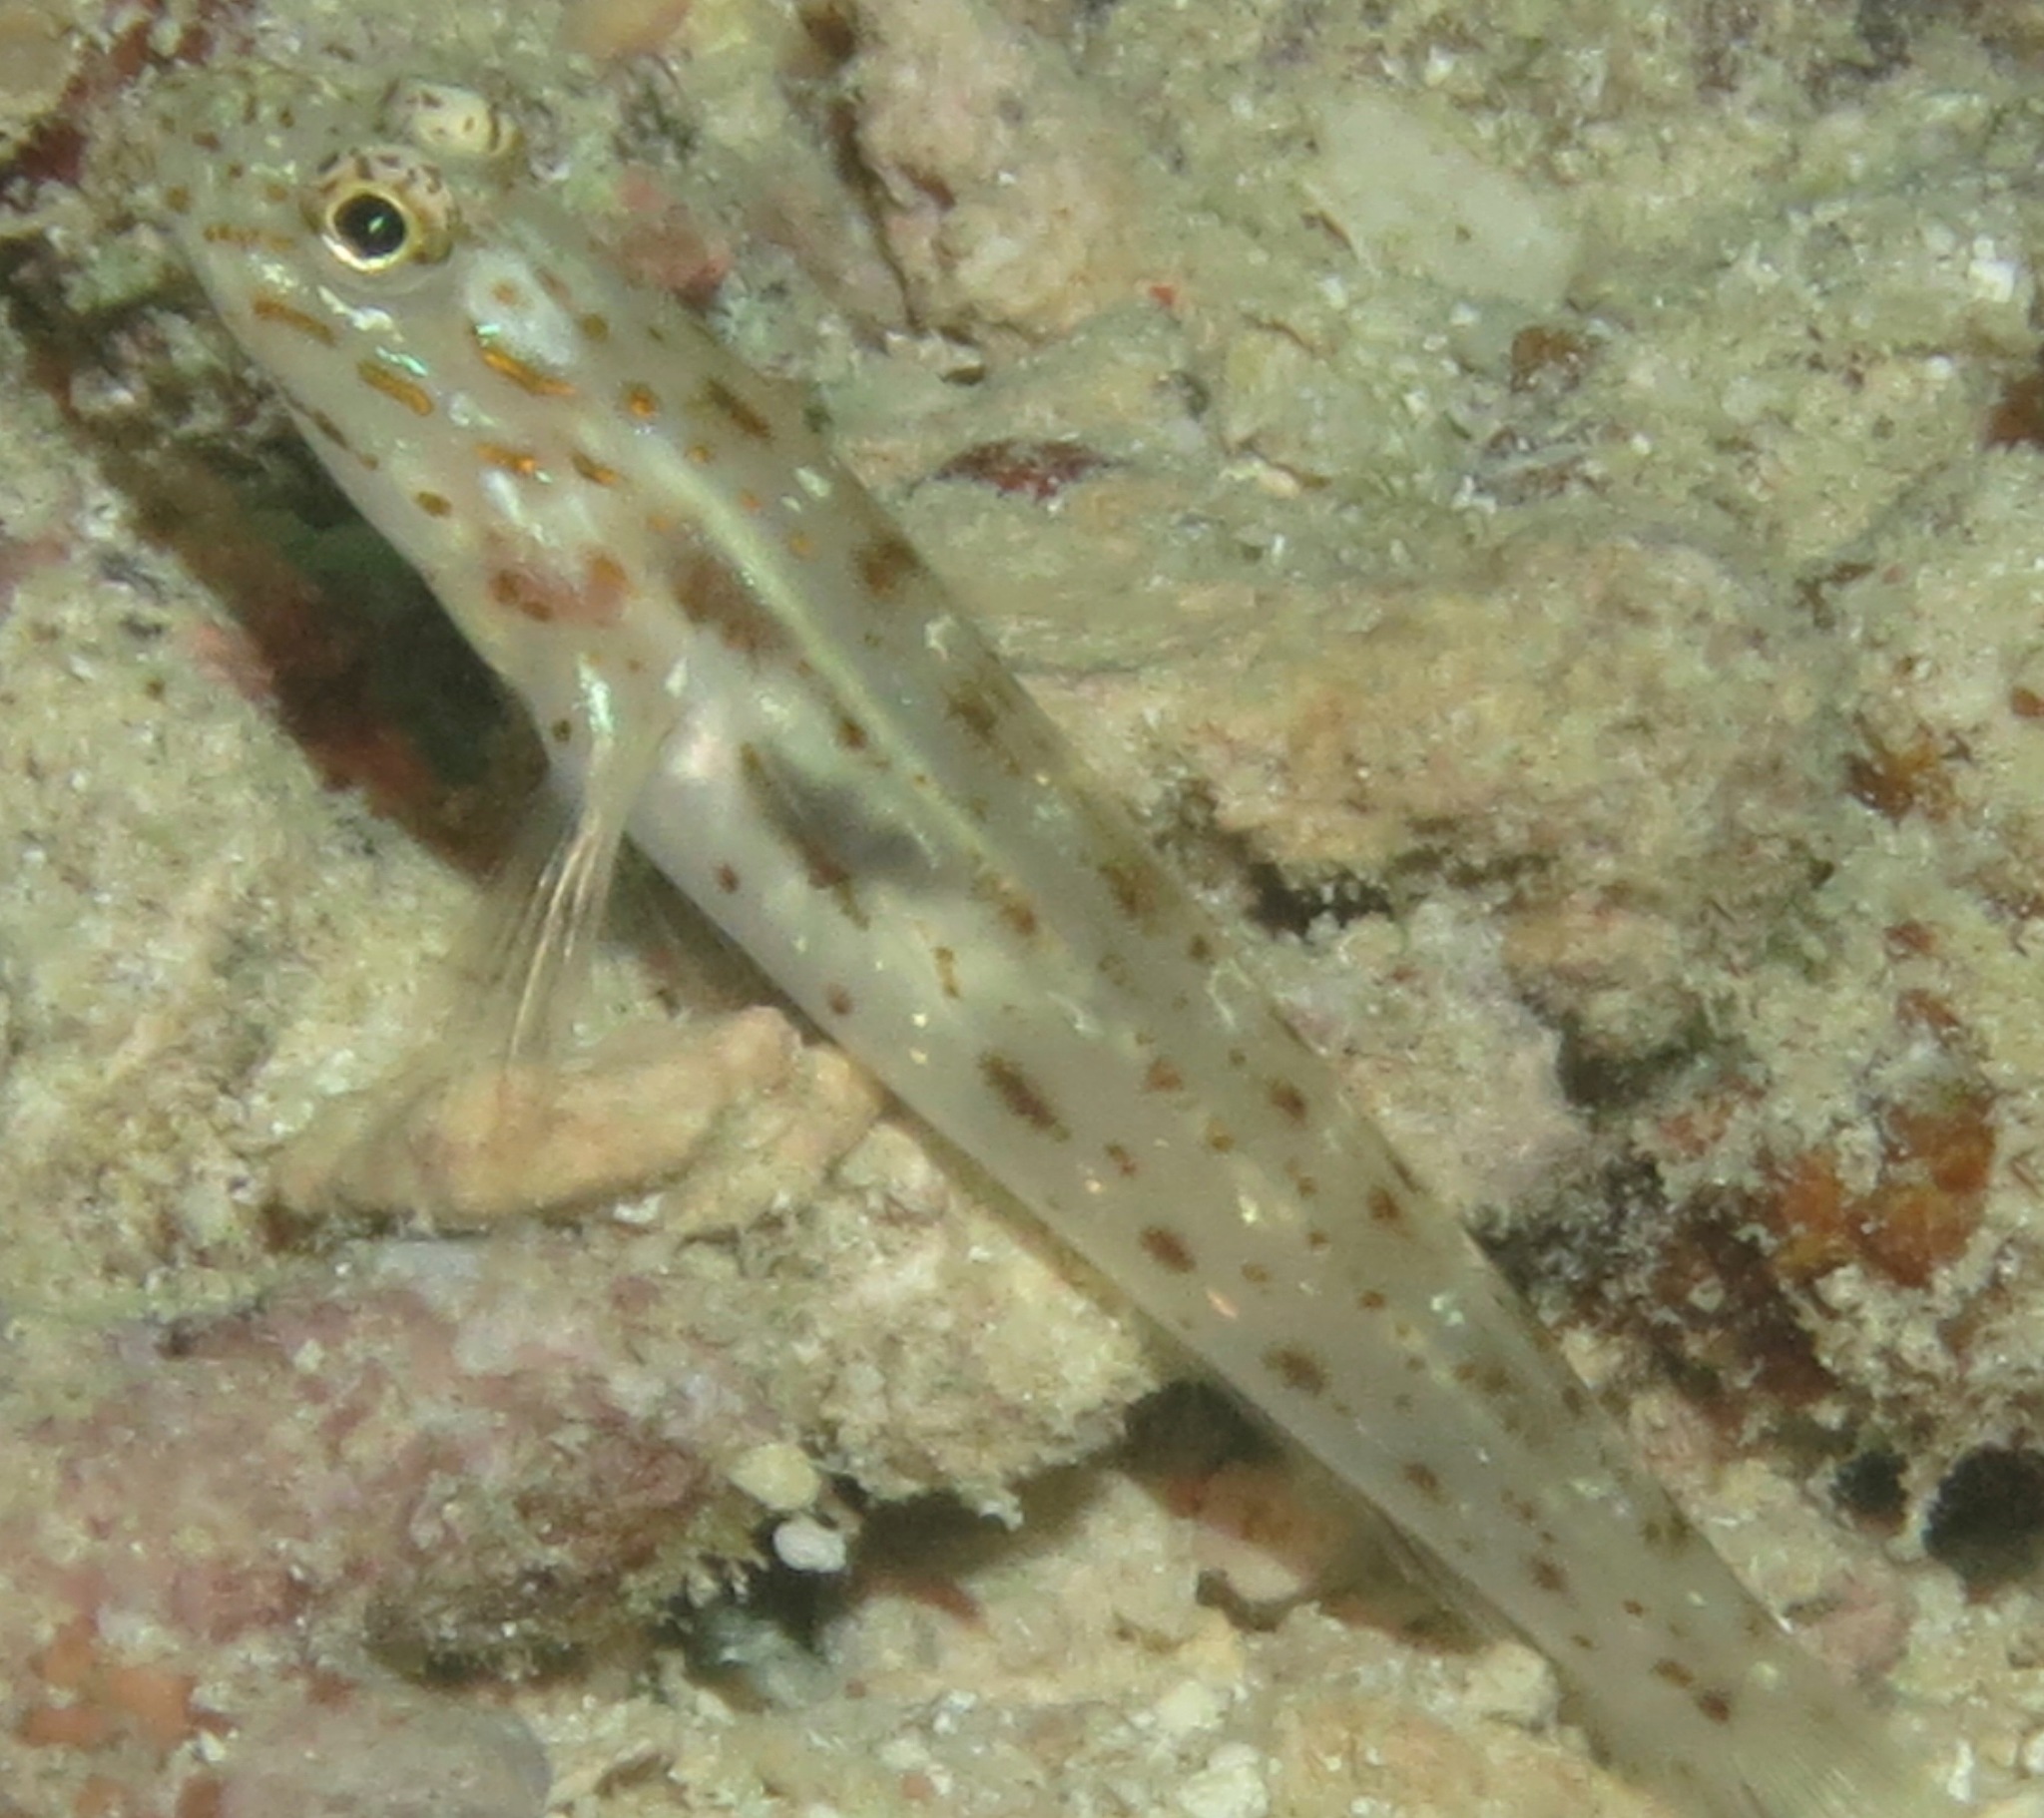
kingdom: Animalia
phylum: Chordata
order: Perciformes
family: Gobiidae
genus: Ctenogobiops
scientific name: Ctenogobiops crocineus
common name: Silverspot shrimpgoby
